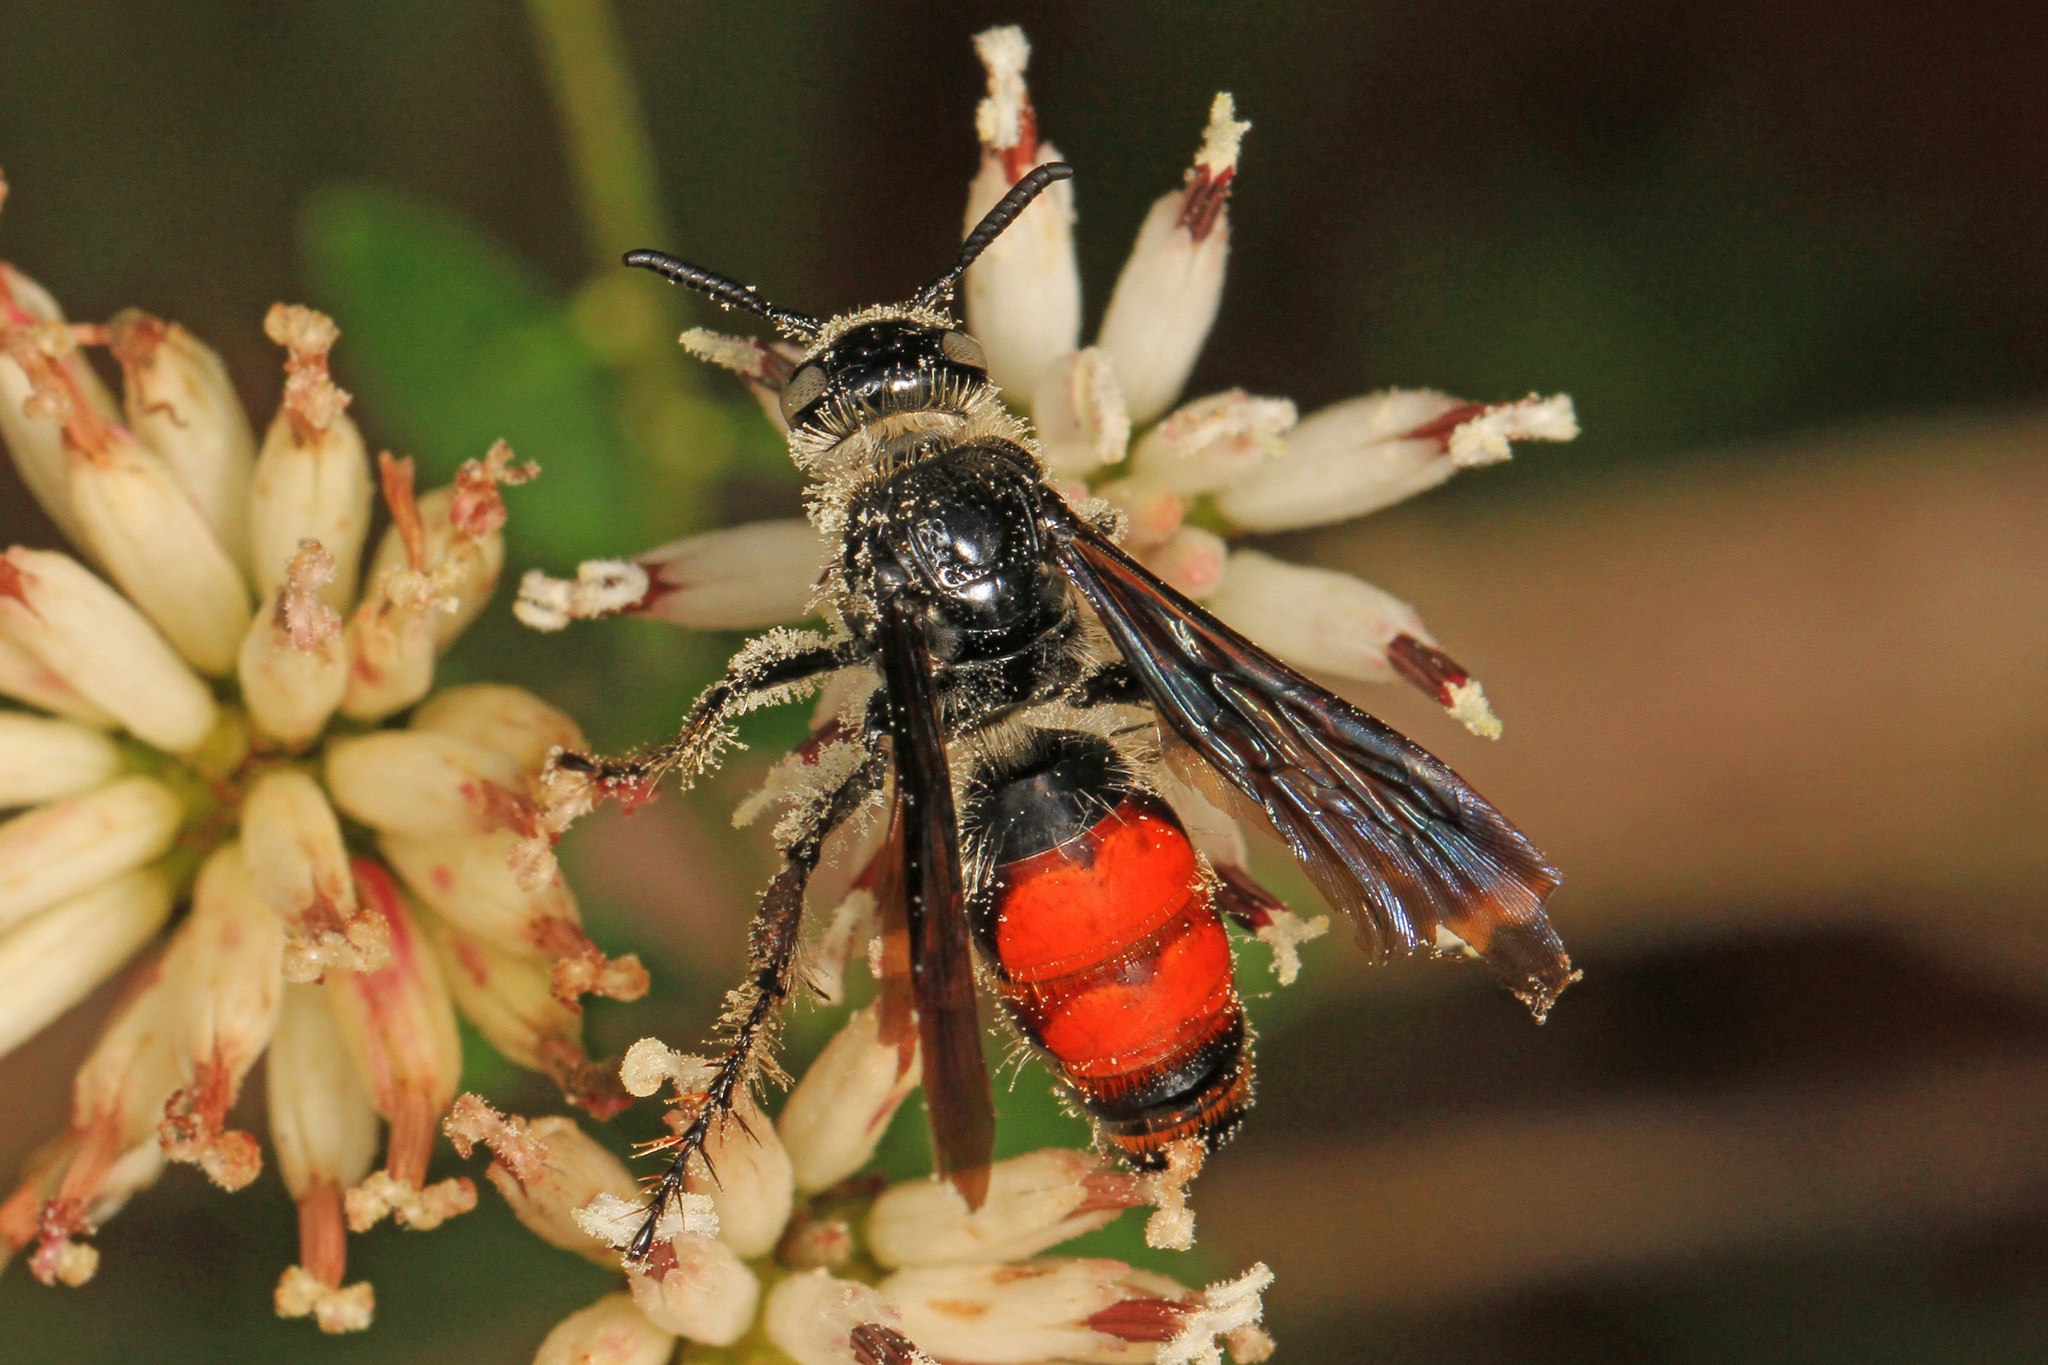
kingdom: Animalia
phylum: Arthropoda
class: Insecta
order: Hymenoptera
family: Scoliidae
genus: Dielis
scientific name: Dielis dorsata
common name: Scoliid wasp
